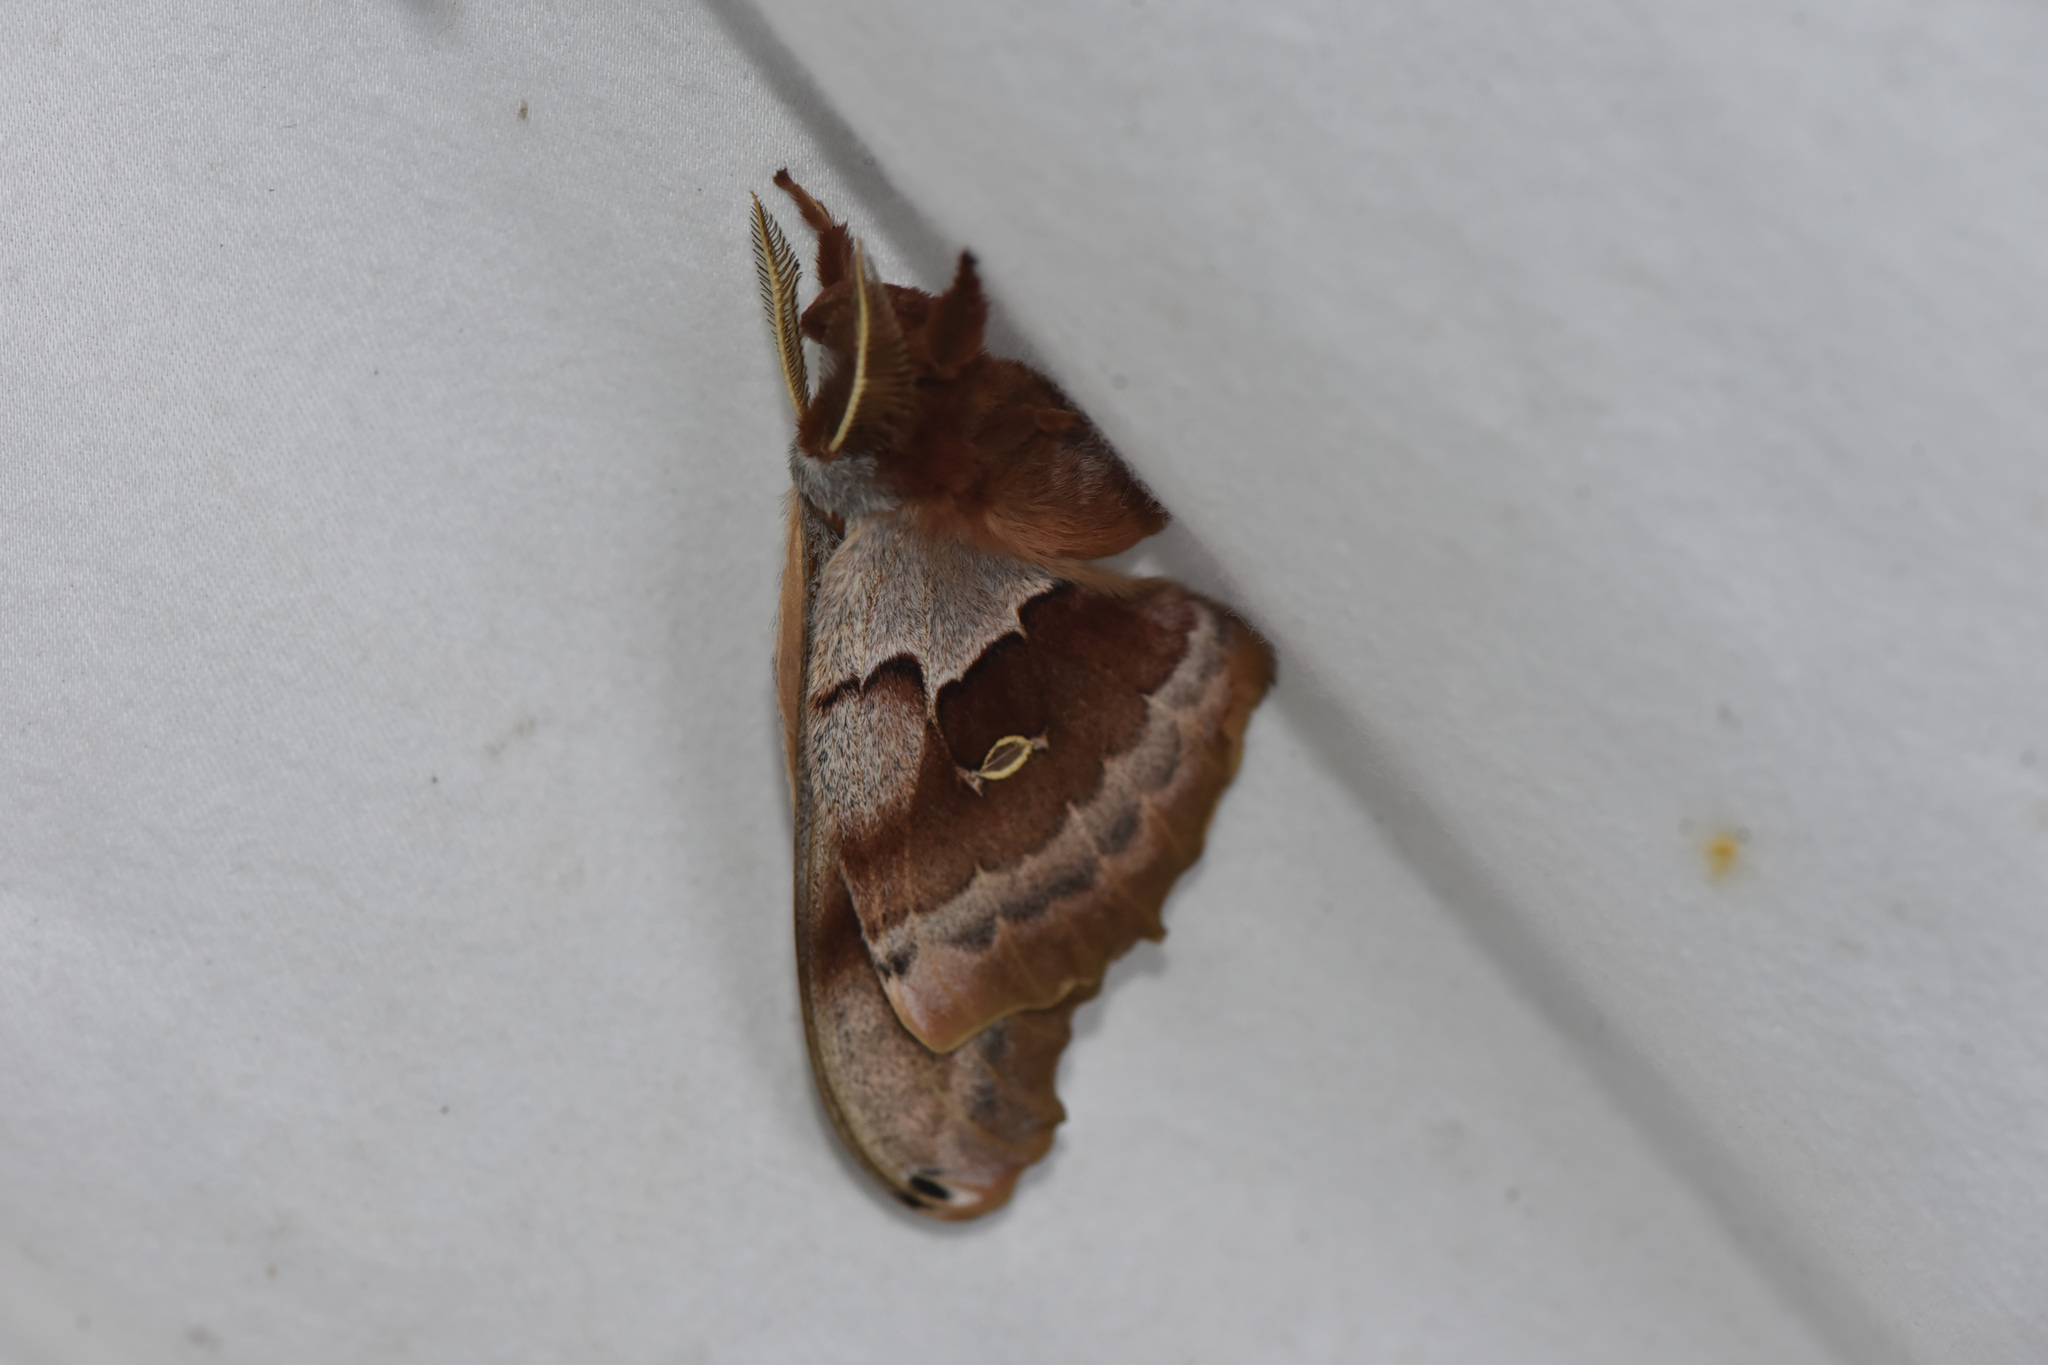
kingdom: Animalia
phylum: Arthropoda
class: Insecta
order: Lepidoptera
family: Saturniidae
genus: Antheraea
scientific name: Antheraea polyphemus
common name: Polyphemus moth
